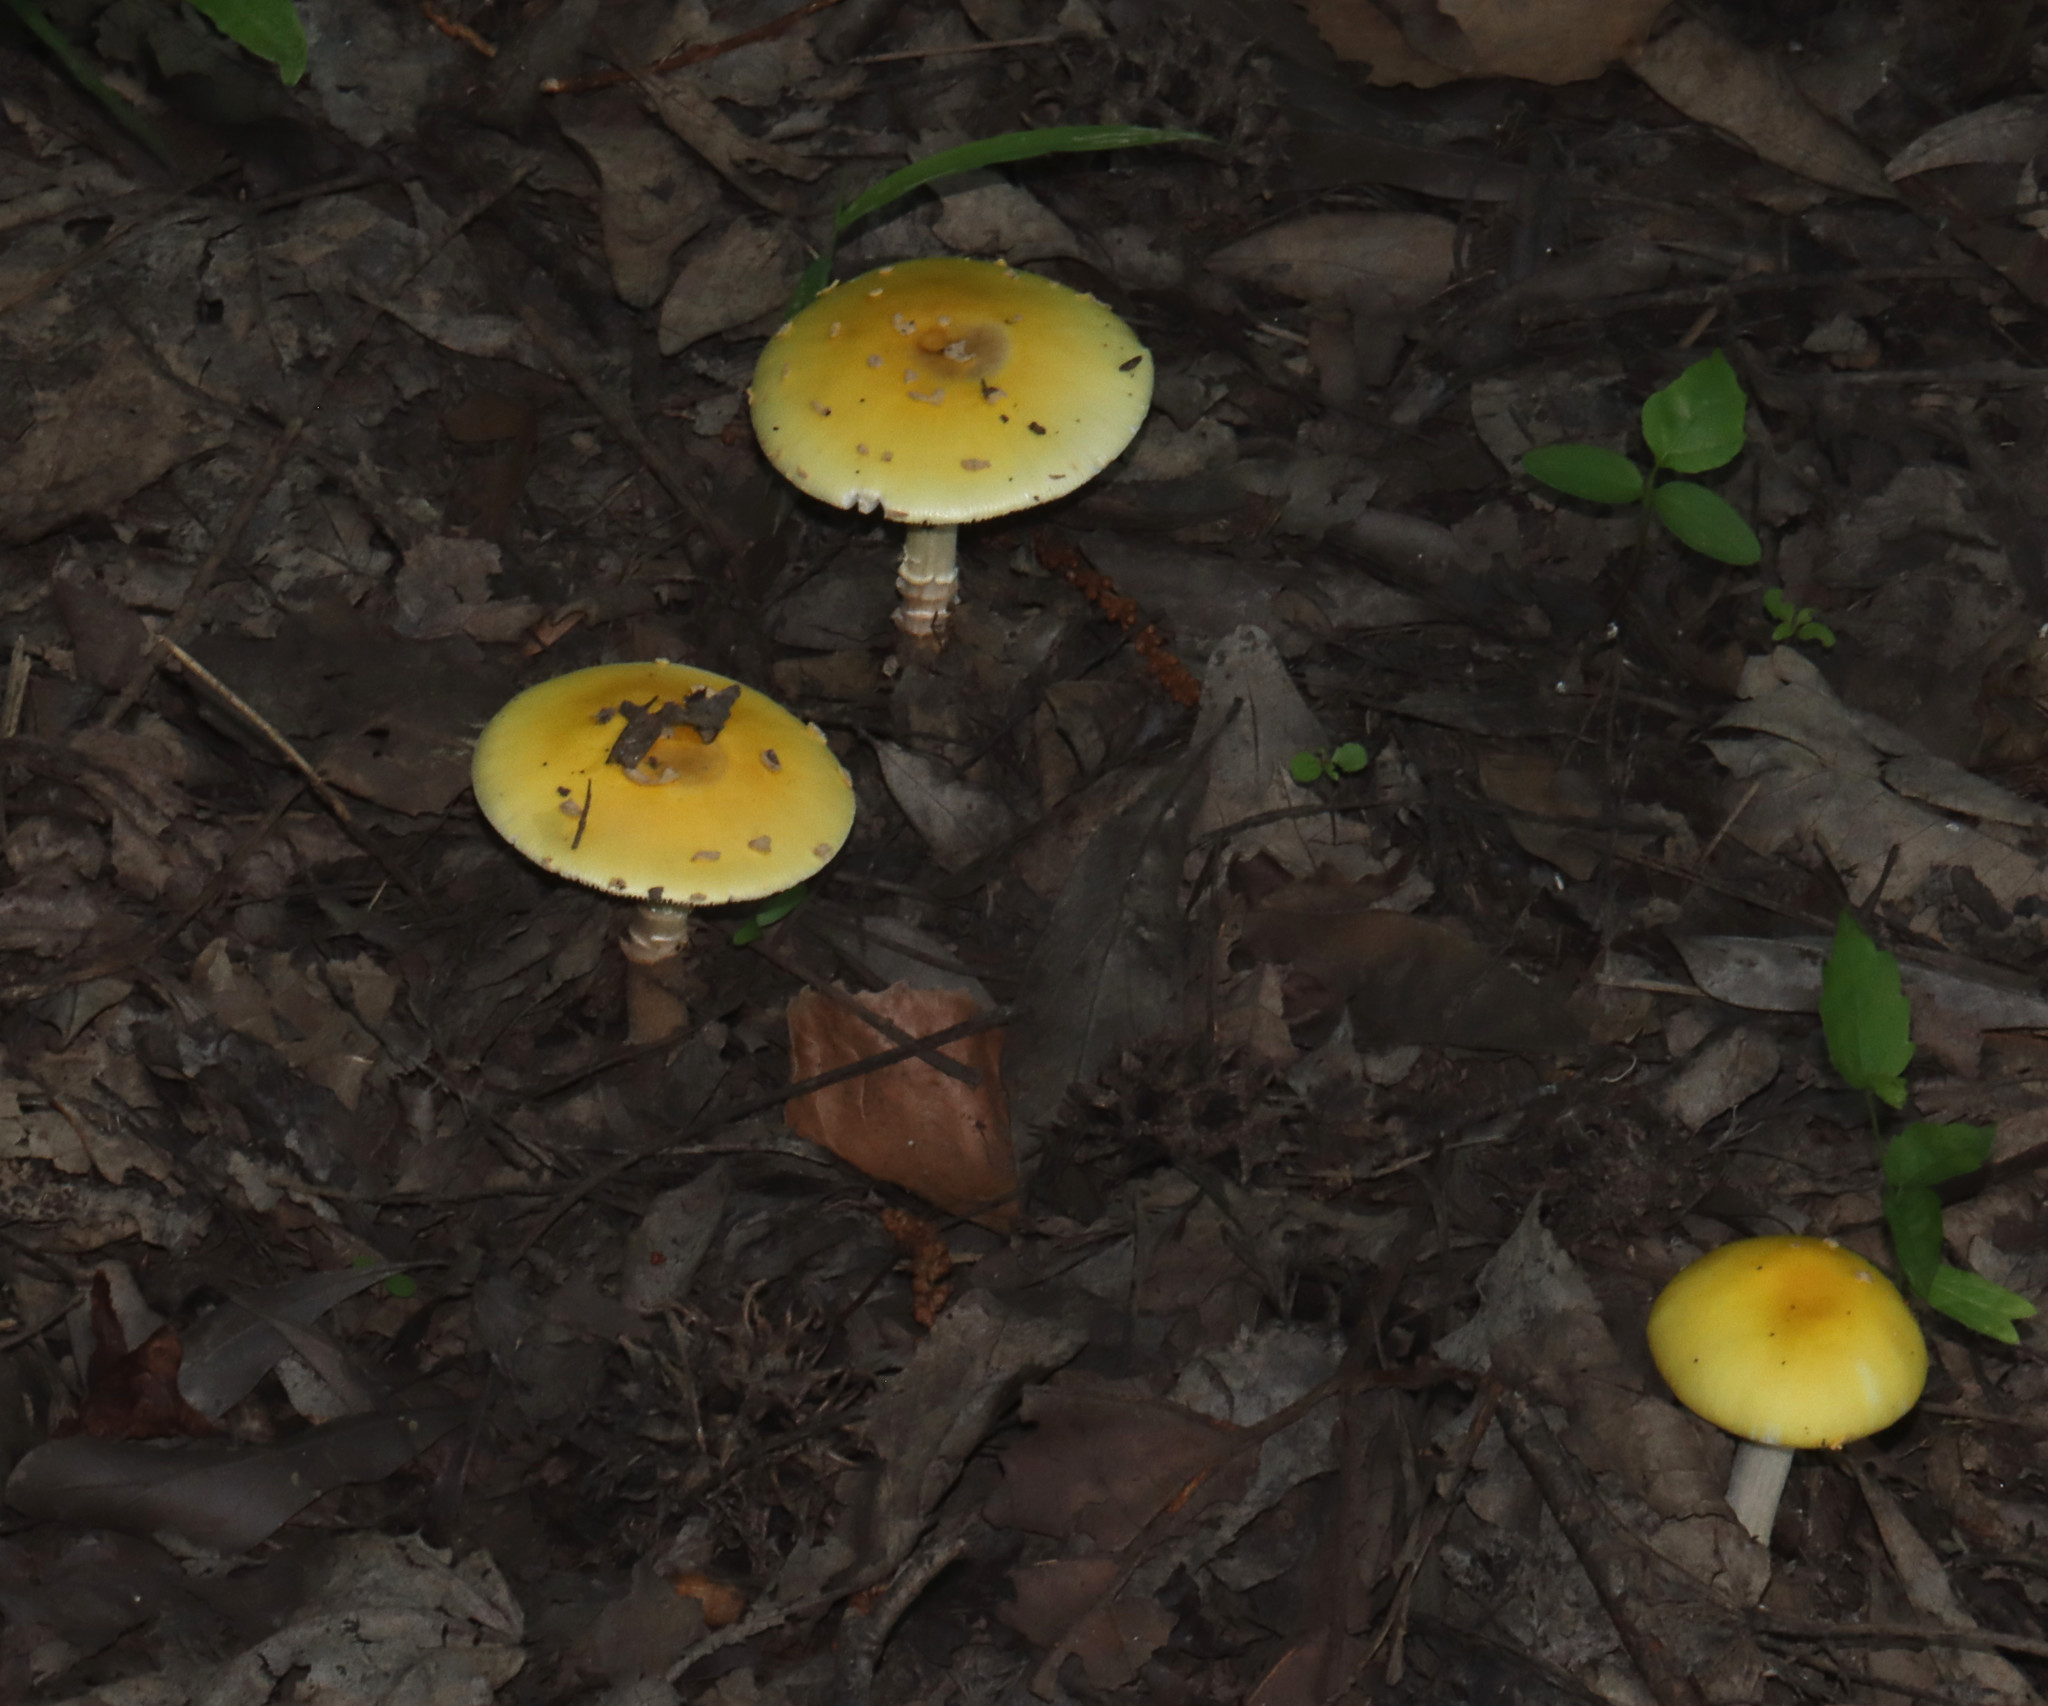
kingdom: Fungi
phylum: Basidiomycota
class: Agaricomycetes
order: Agaricales
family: Amanitaceae
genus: Amanita
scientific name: Amanita flavorubens
